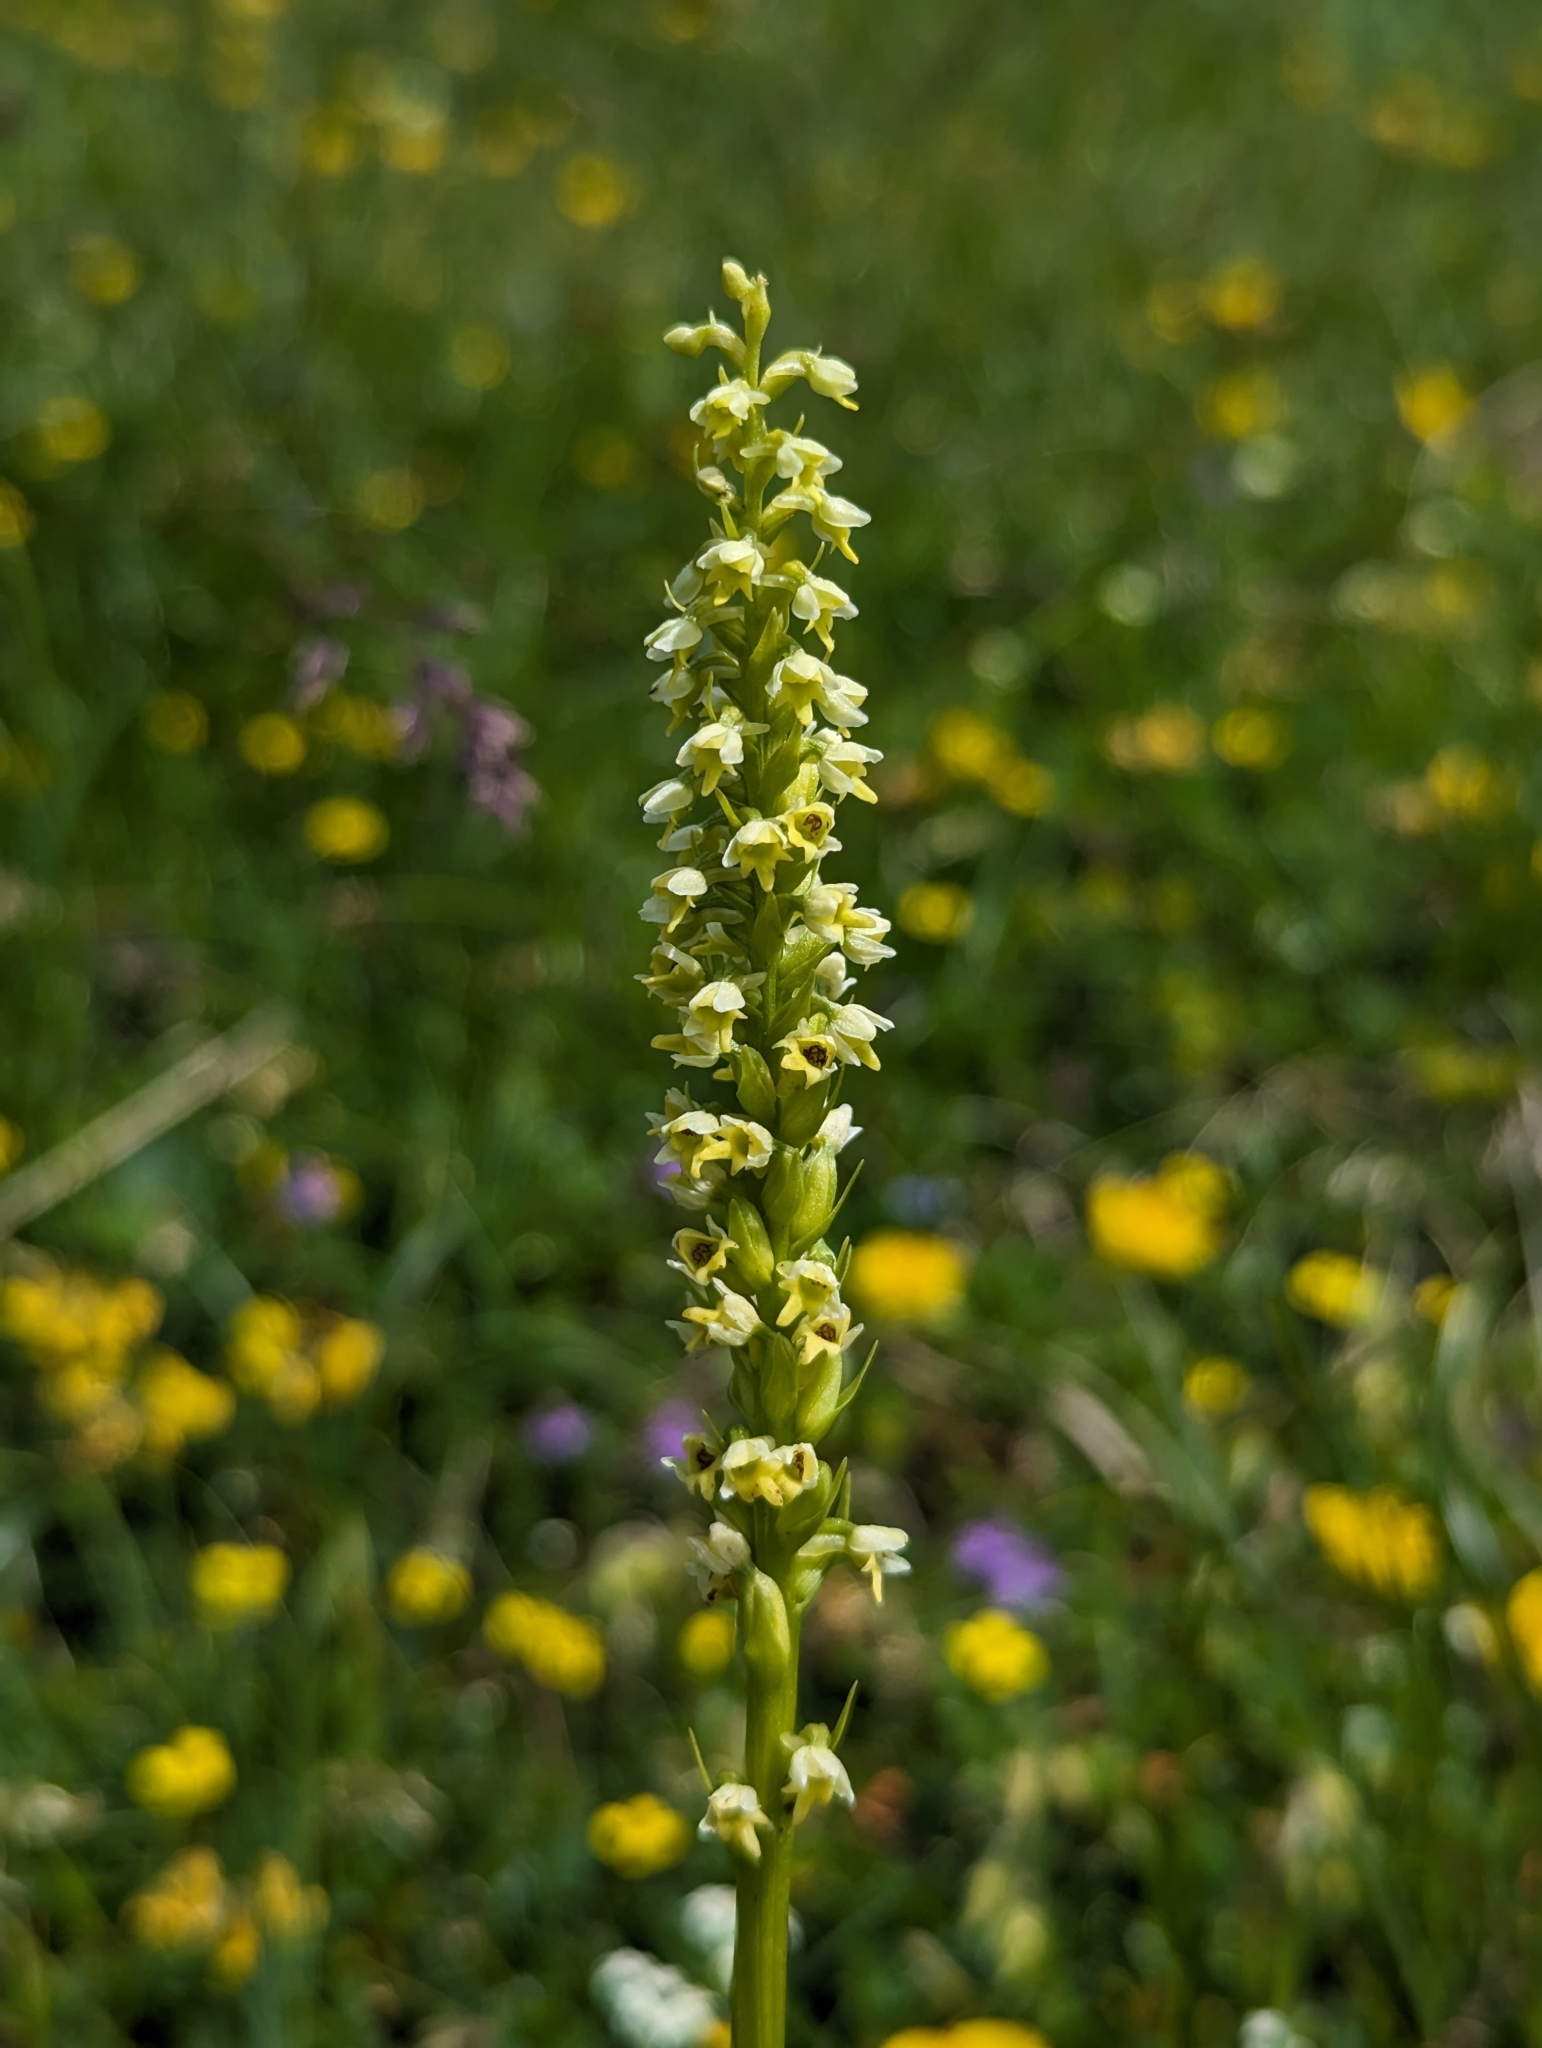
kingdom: Plantae
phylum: Tracheophyta
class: Liliopsida
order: Asparagales
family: Orchidaceae
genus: Pseudorchis
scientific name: Pseudorchis albida
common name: Small-white orchid
